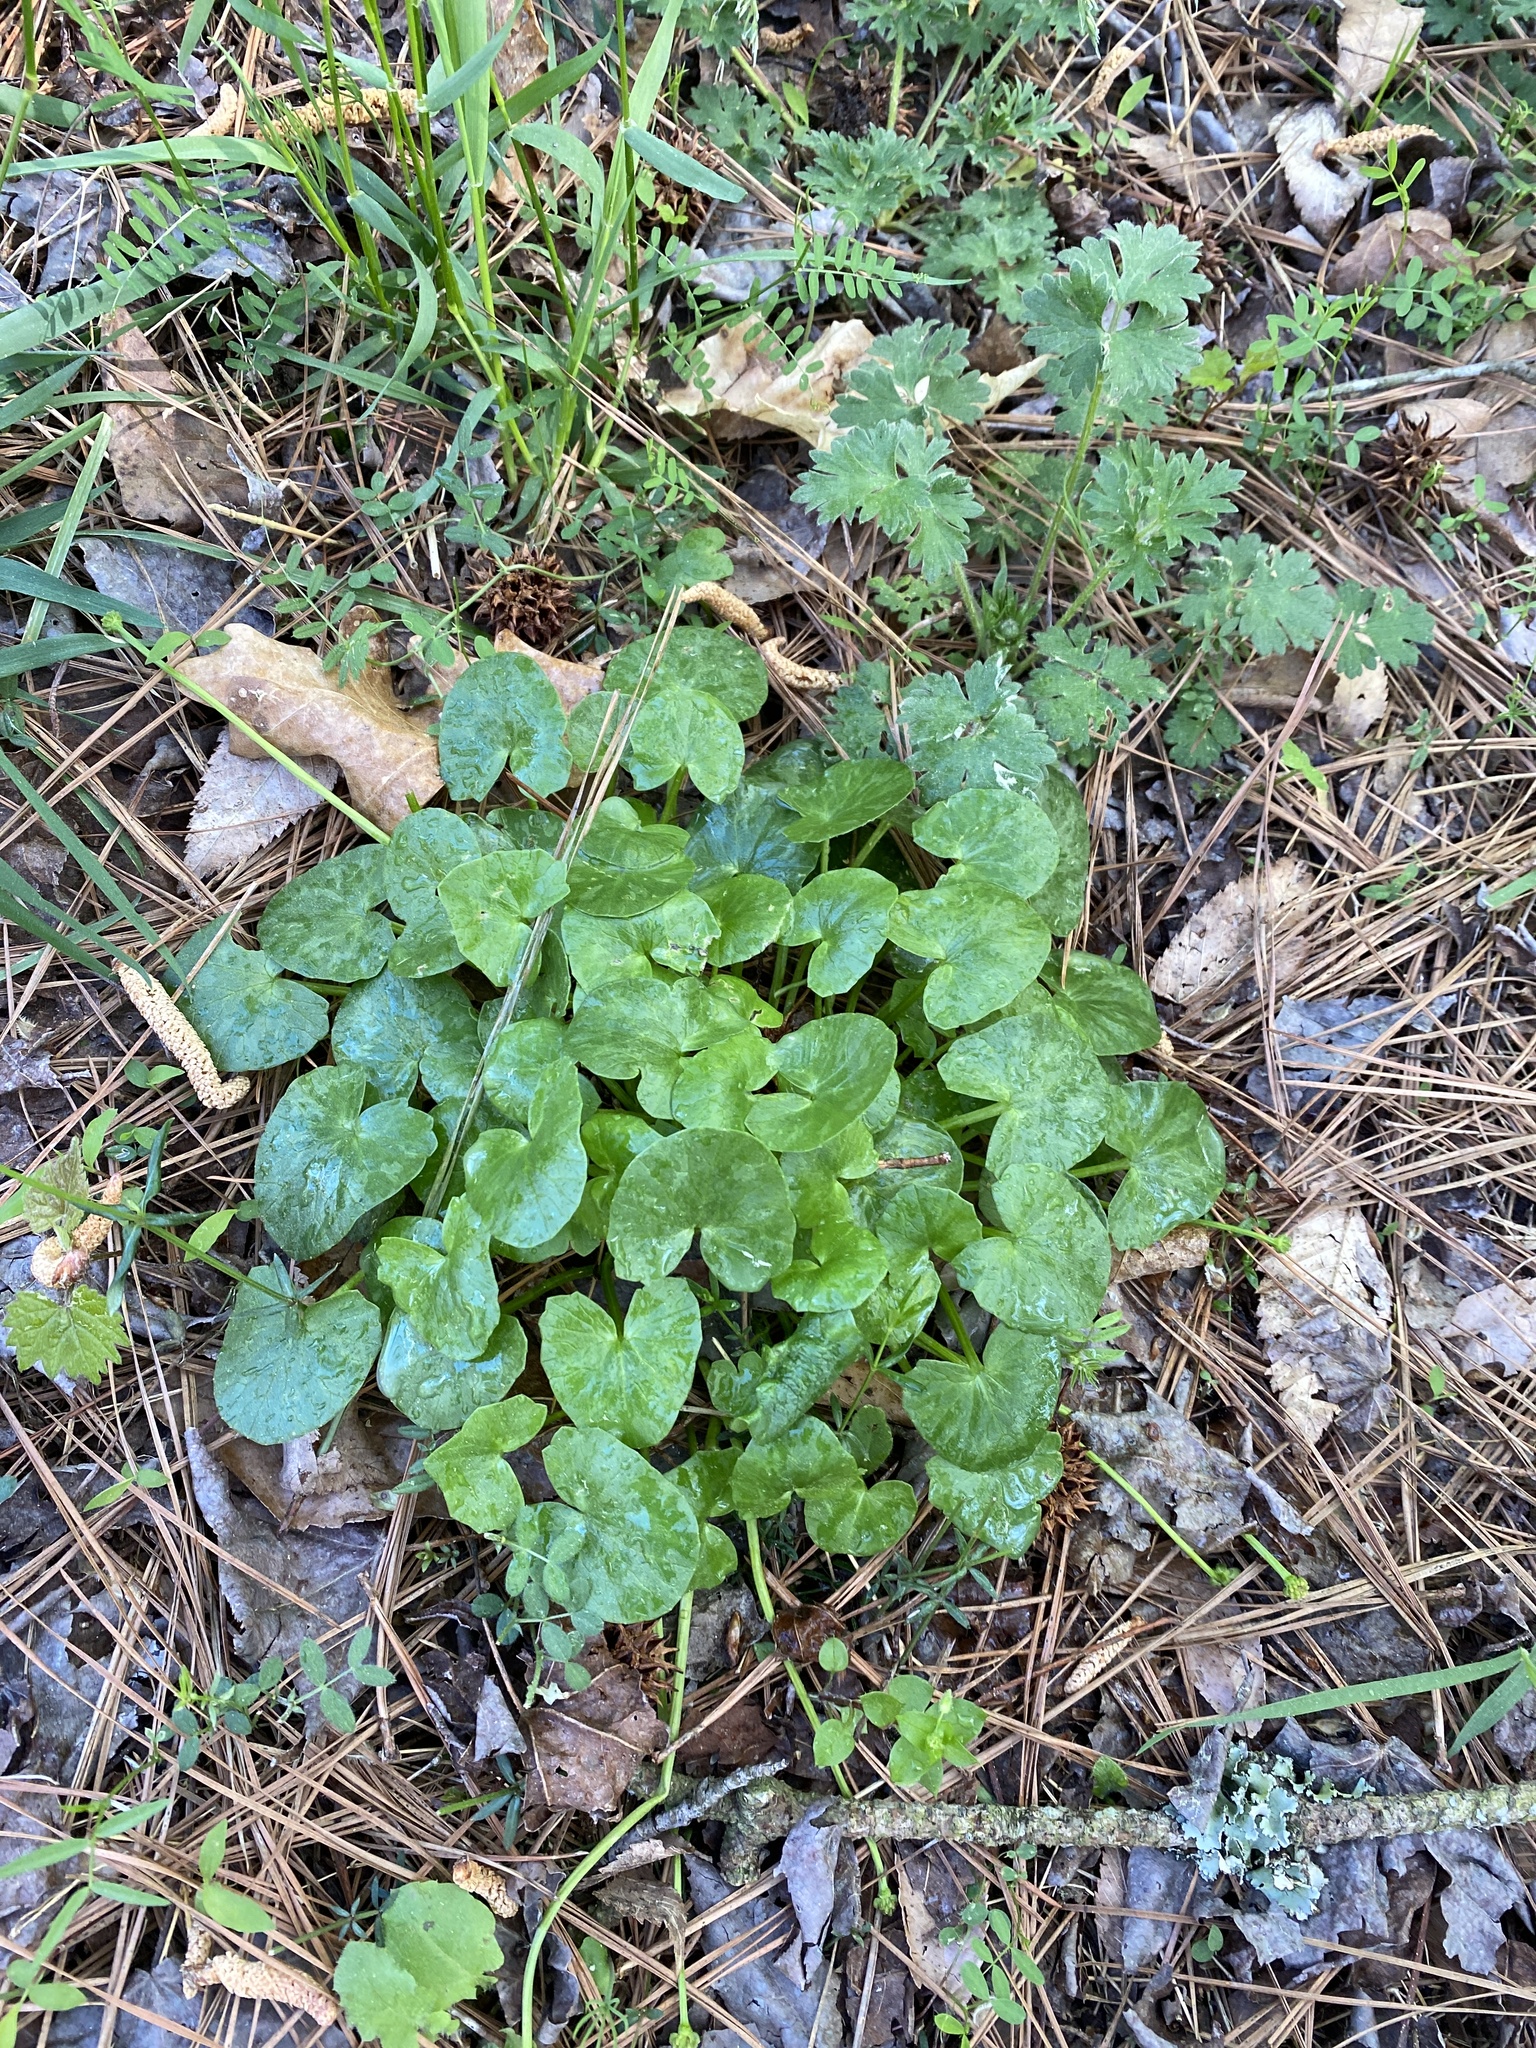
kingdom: Plantae
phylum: Tracheophyta
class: Magnoliopsida
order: Ranunculales
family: Ranunculaceae
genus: Ficaria
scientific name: Ficaria verna
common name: Lesser celandine
